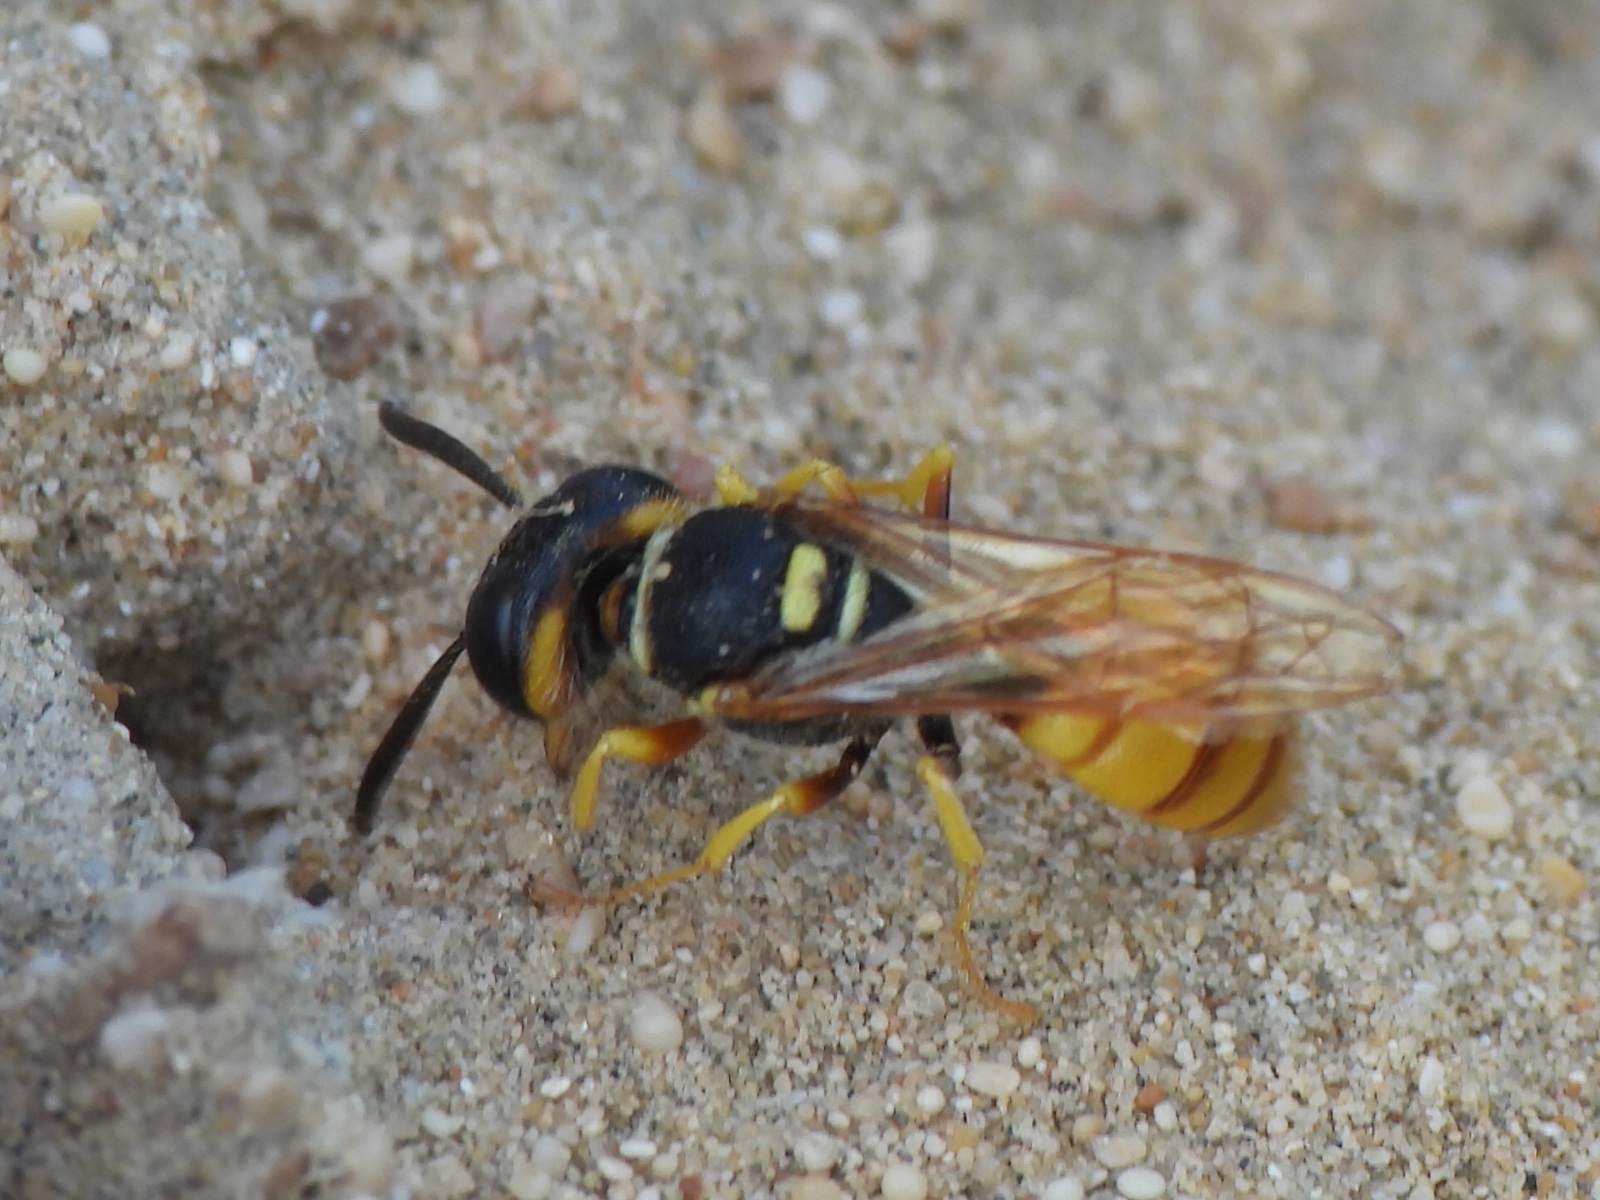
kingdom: Animalia
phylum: Arthropoda
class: Insecta
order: Hymenoptera
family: Crabronidae
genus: Philanthus
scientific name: Philanthus triangulum
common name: Bee wolf
